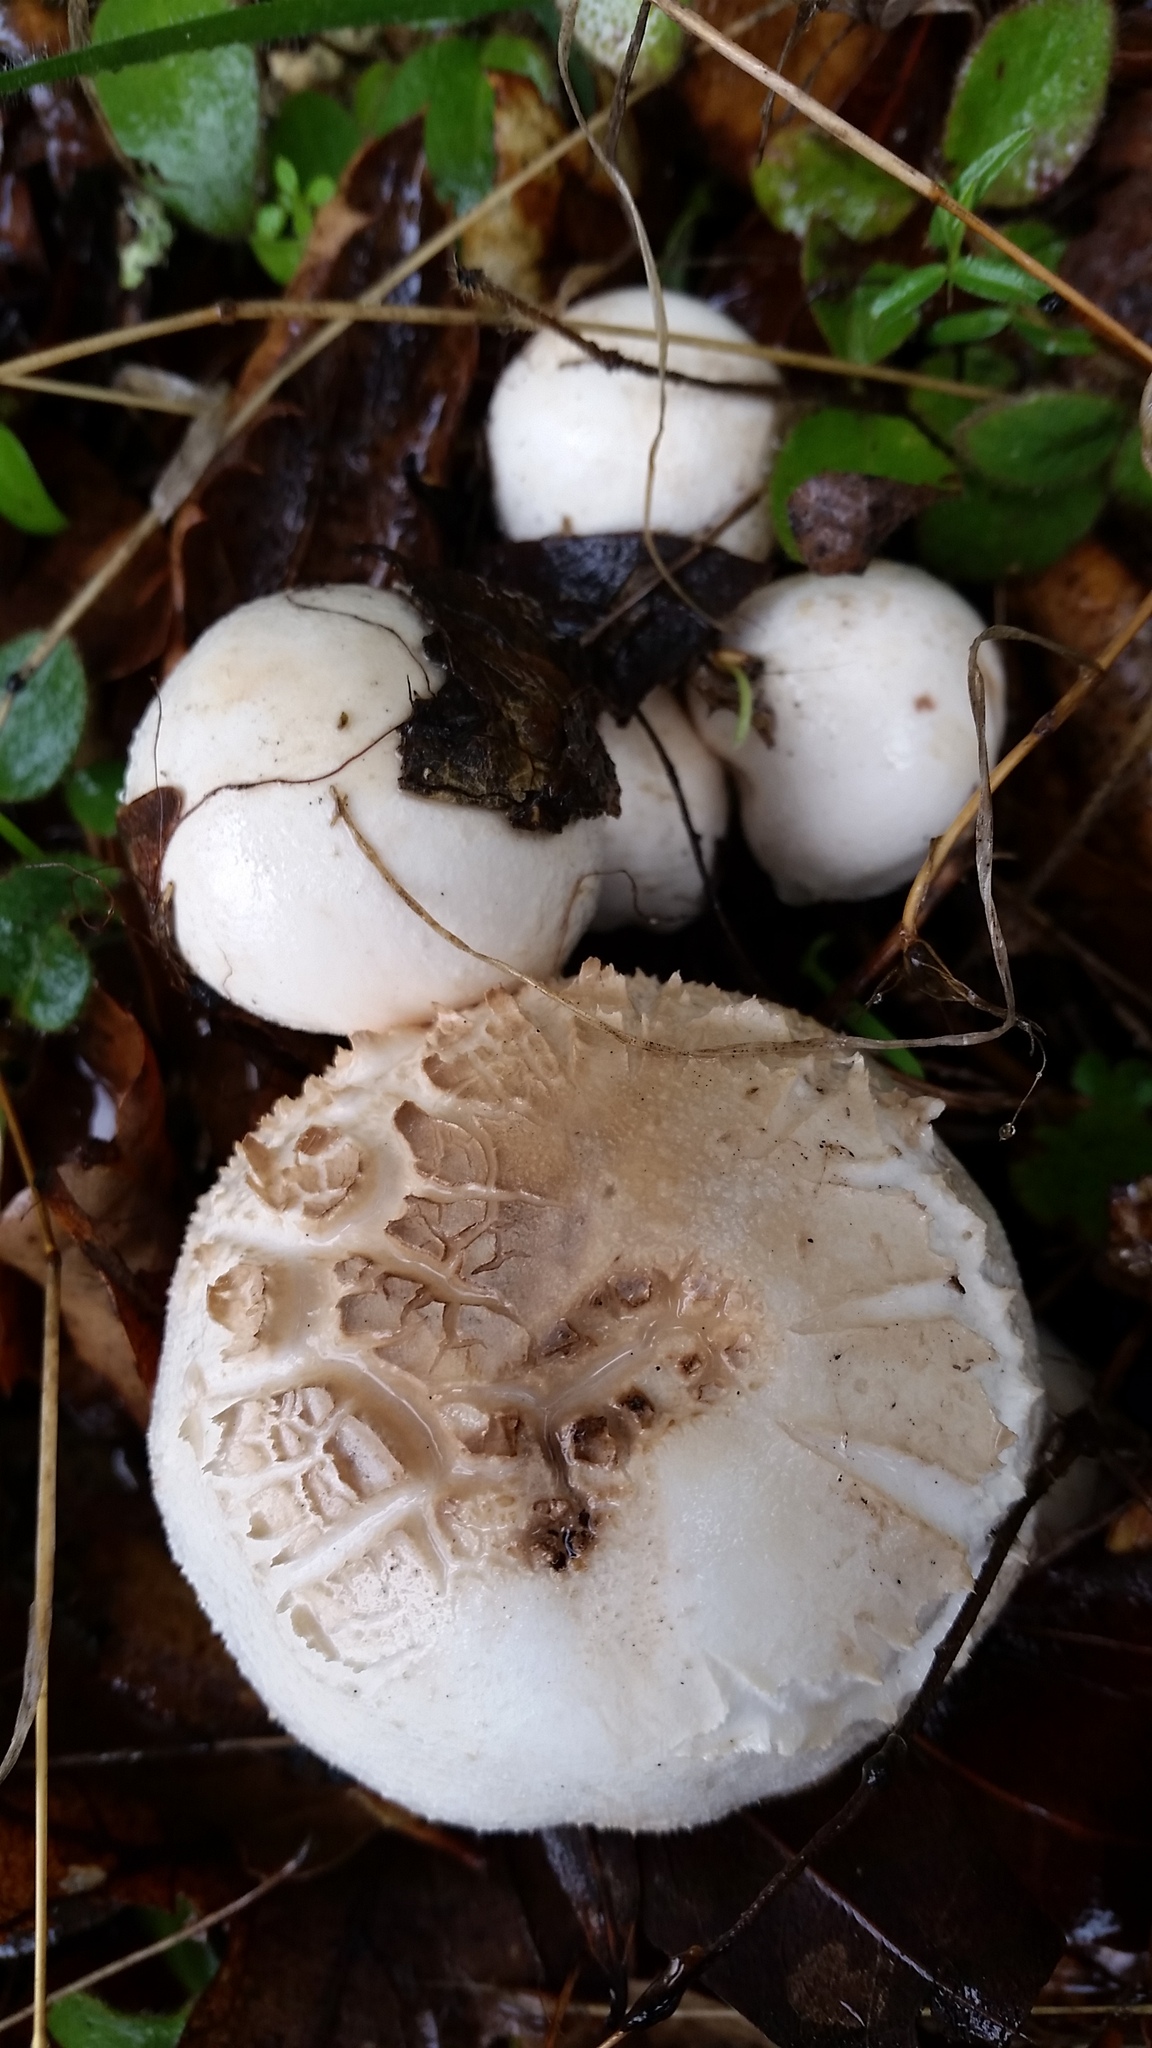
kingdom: Fungi
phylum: Basidiomycota
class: Agaricomycetes
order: Agaricales
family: Agaricaceae
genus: Agaricus
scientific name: Agaricus xanthodermus
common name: Yellow stainer
